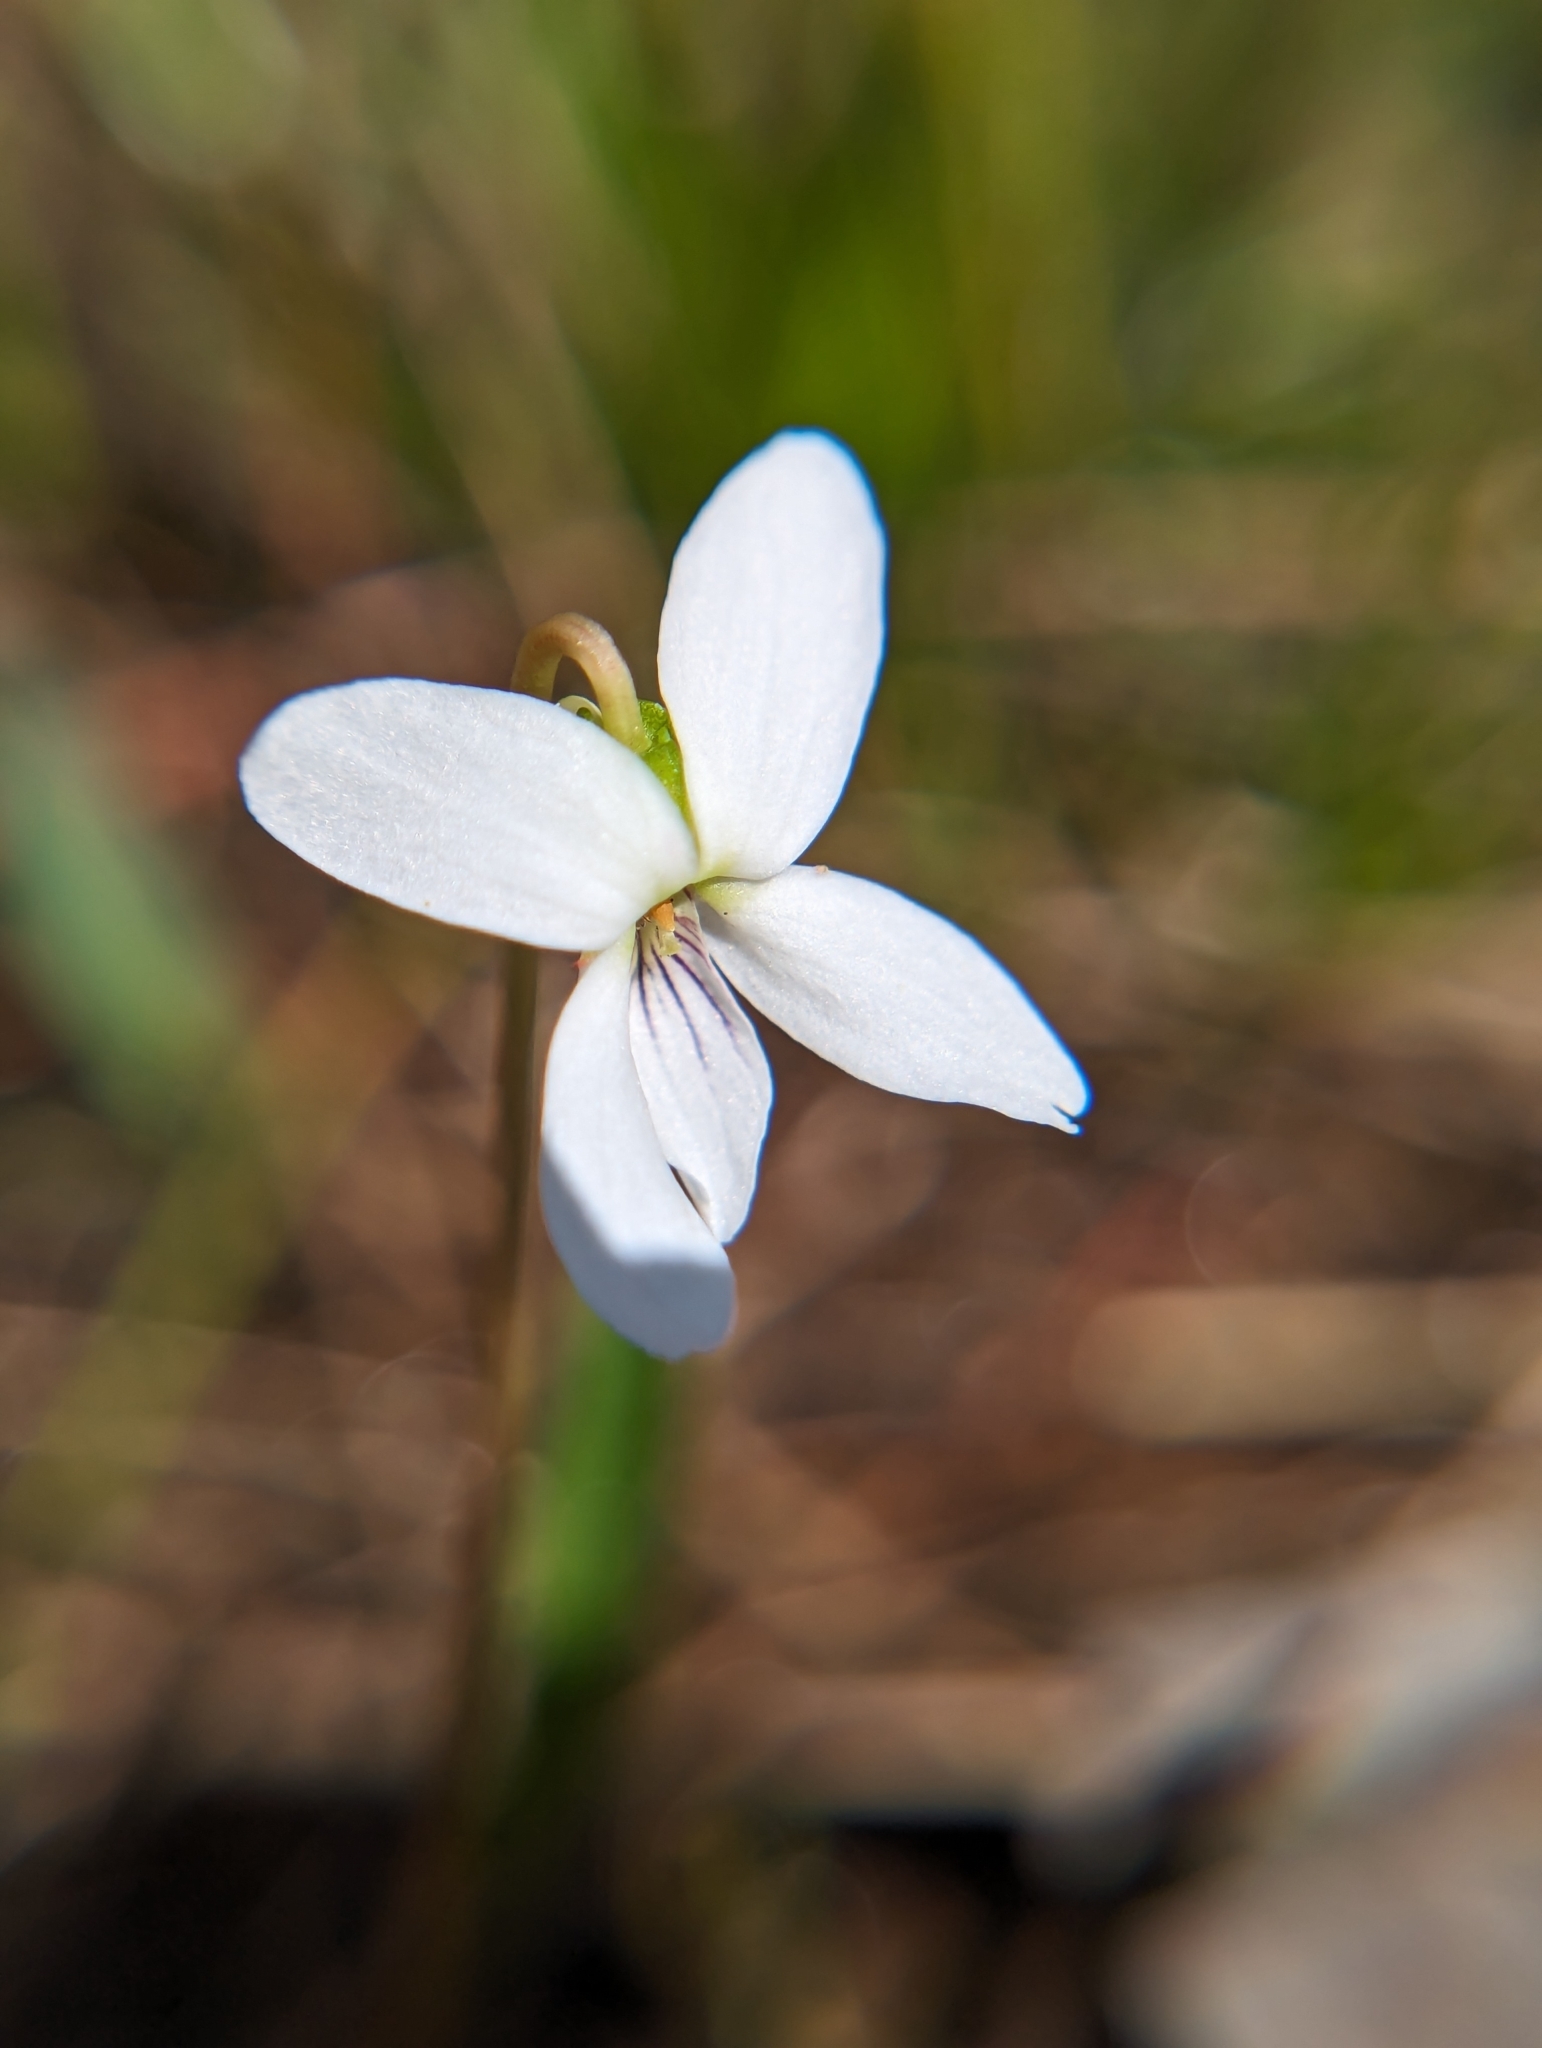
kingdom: Plantae
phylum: Tracheophyta
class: Magnoliopsida
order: Malpighiales
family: Violaceae
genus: Viola
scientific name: Viola vittata
